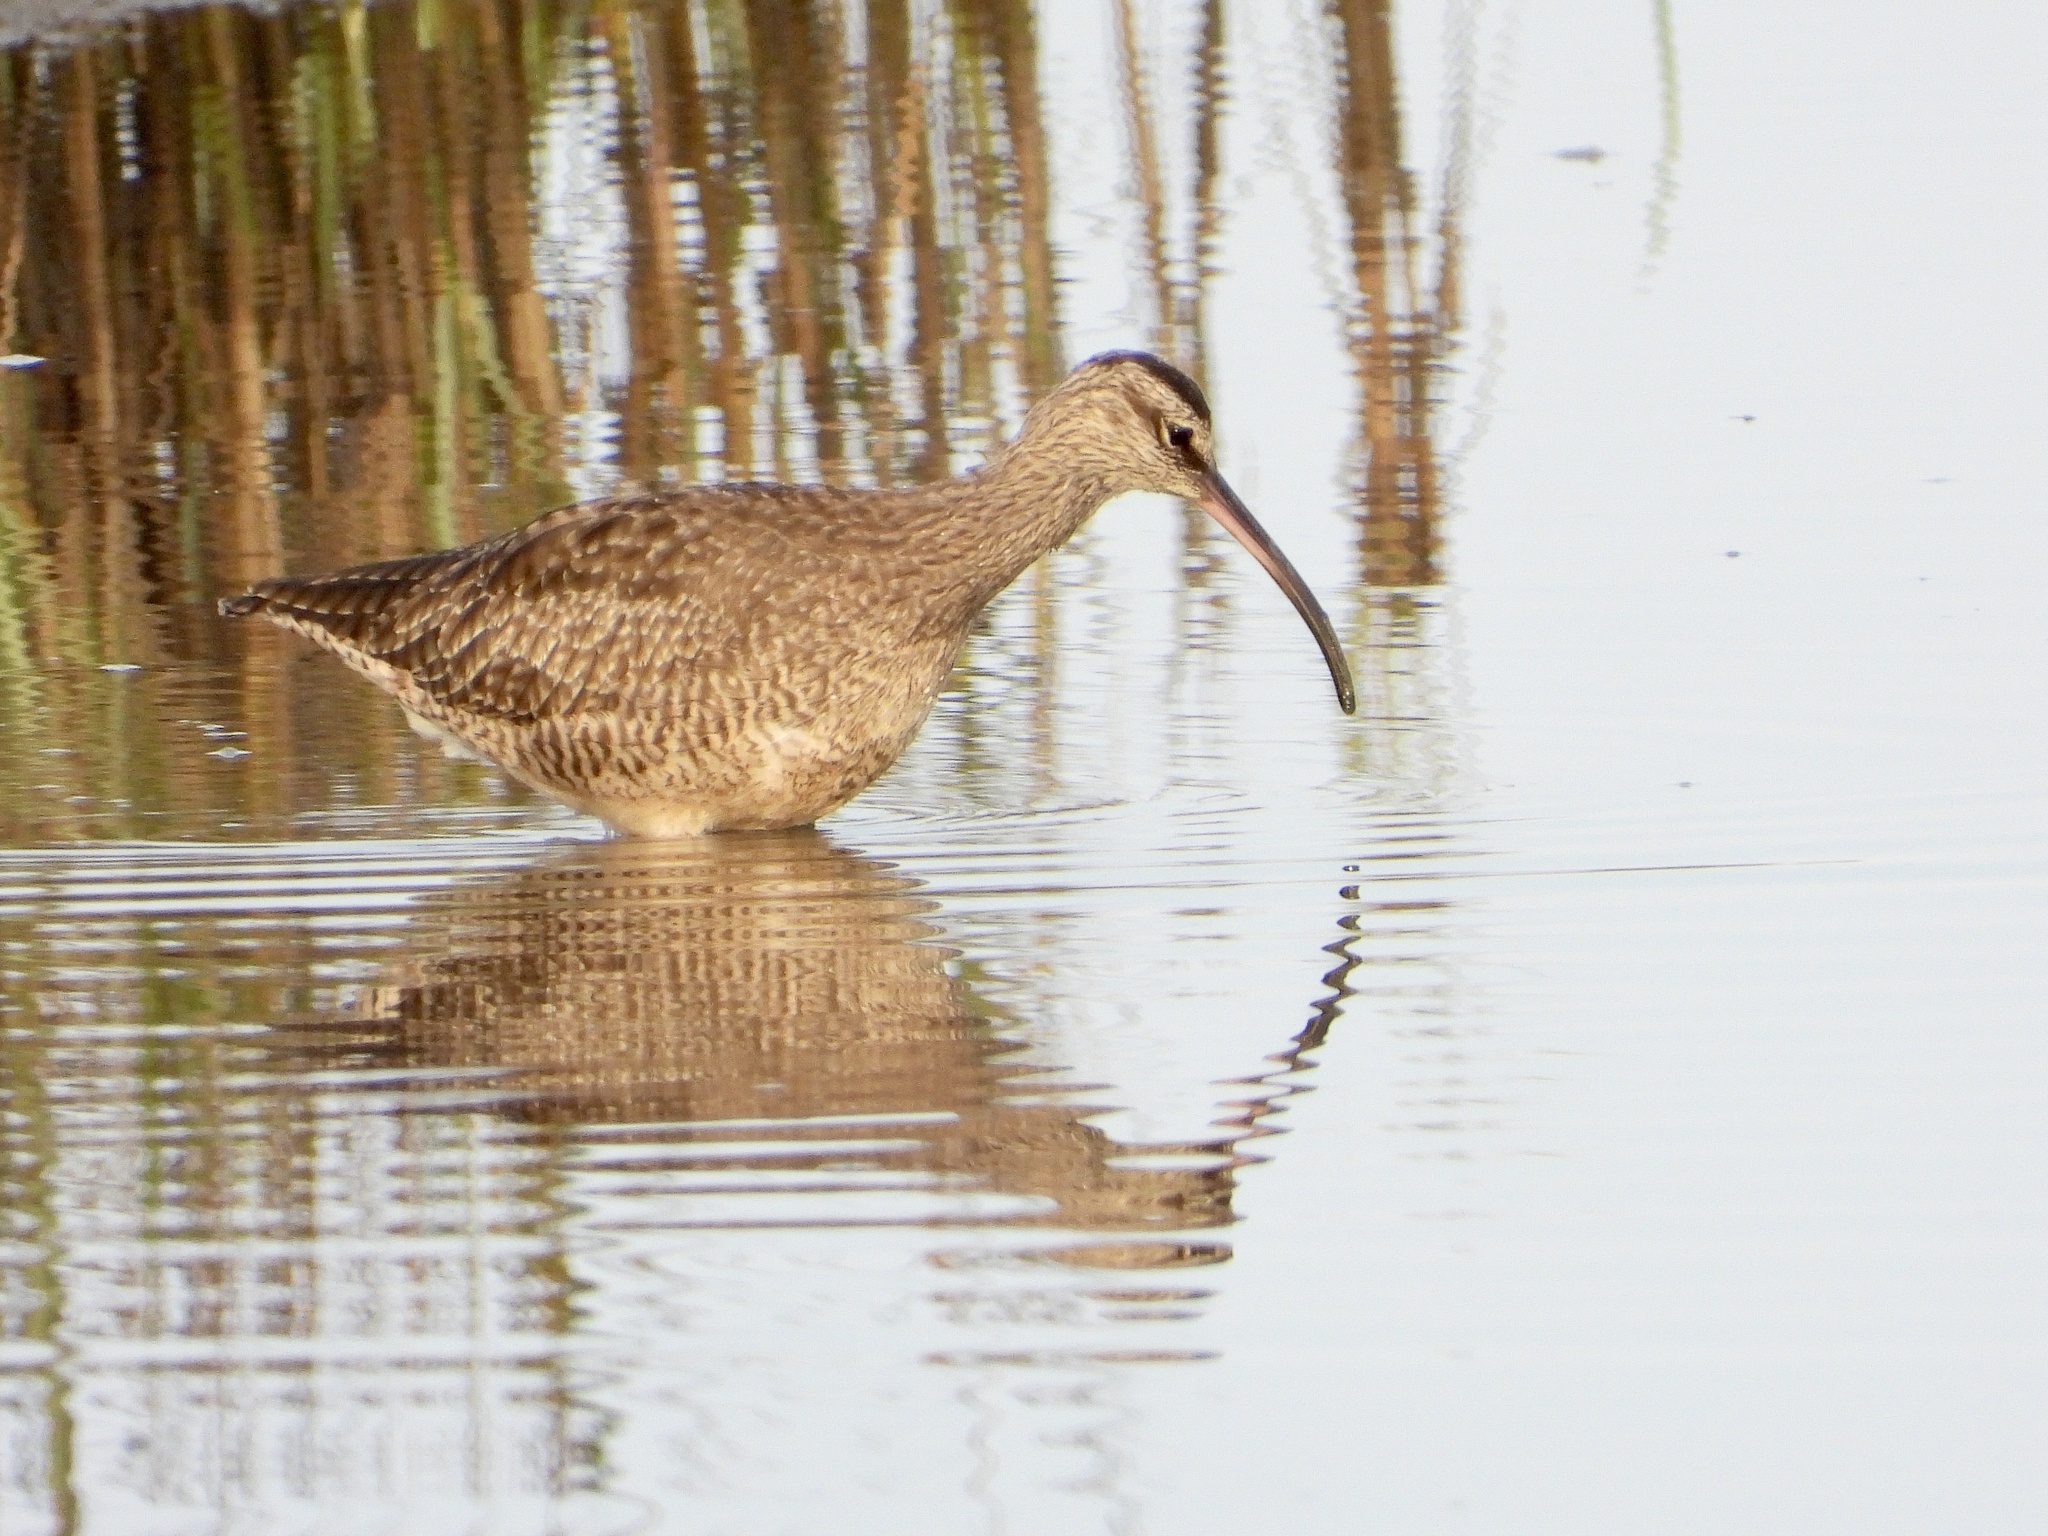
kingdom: Animalia
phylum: Chordata
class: Aves
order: Charadriiformes
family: Scolopacidae
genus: Numenius
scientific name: Numenius phaeopus
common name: Whimbrel
